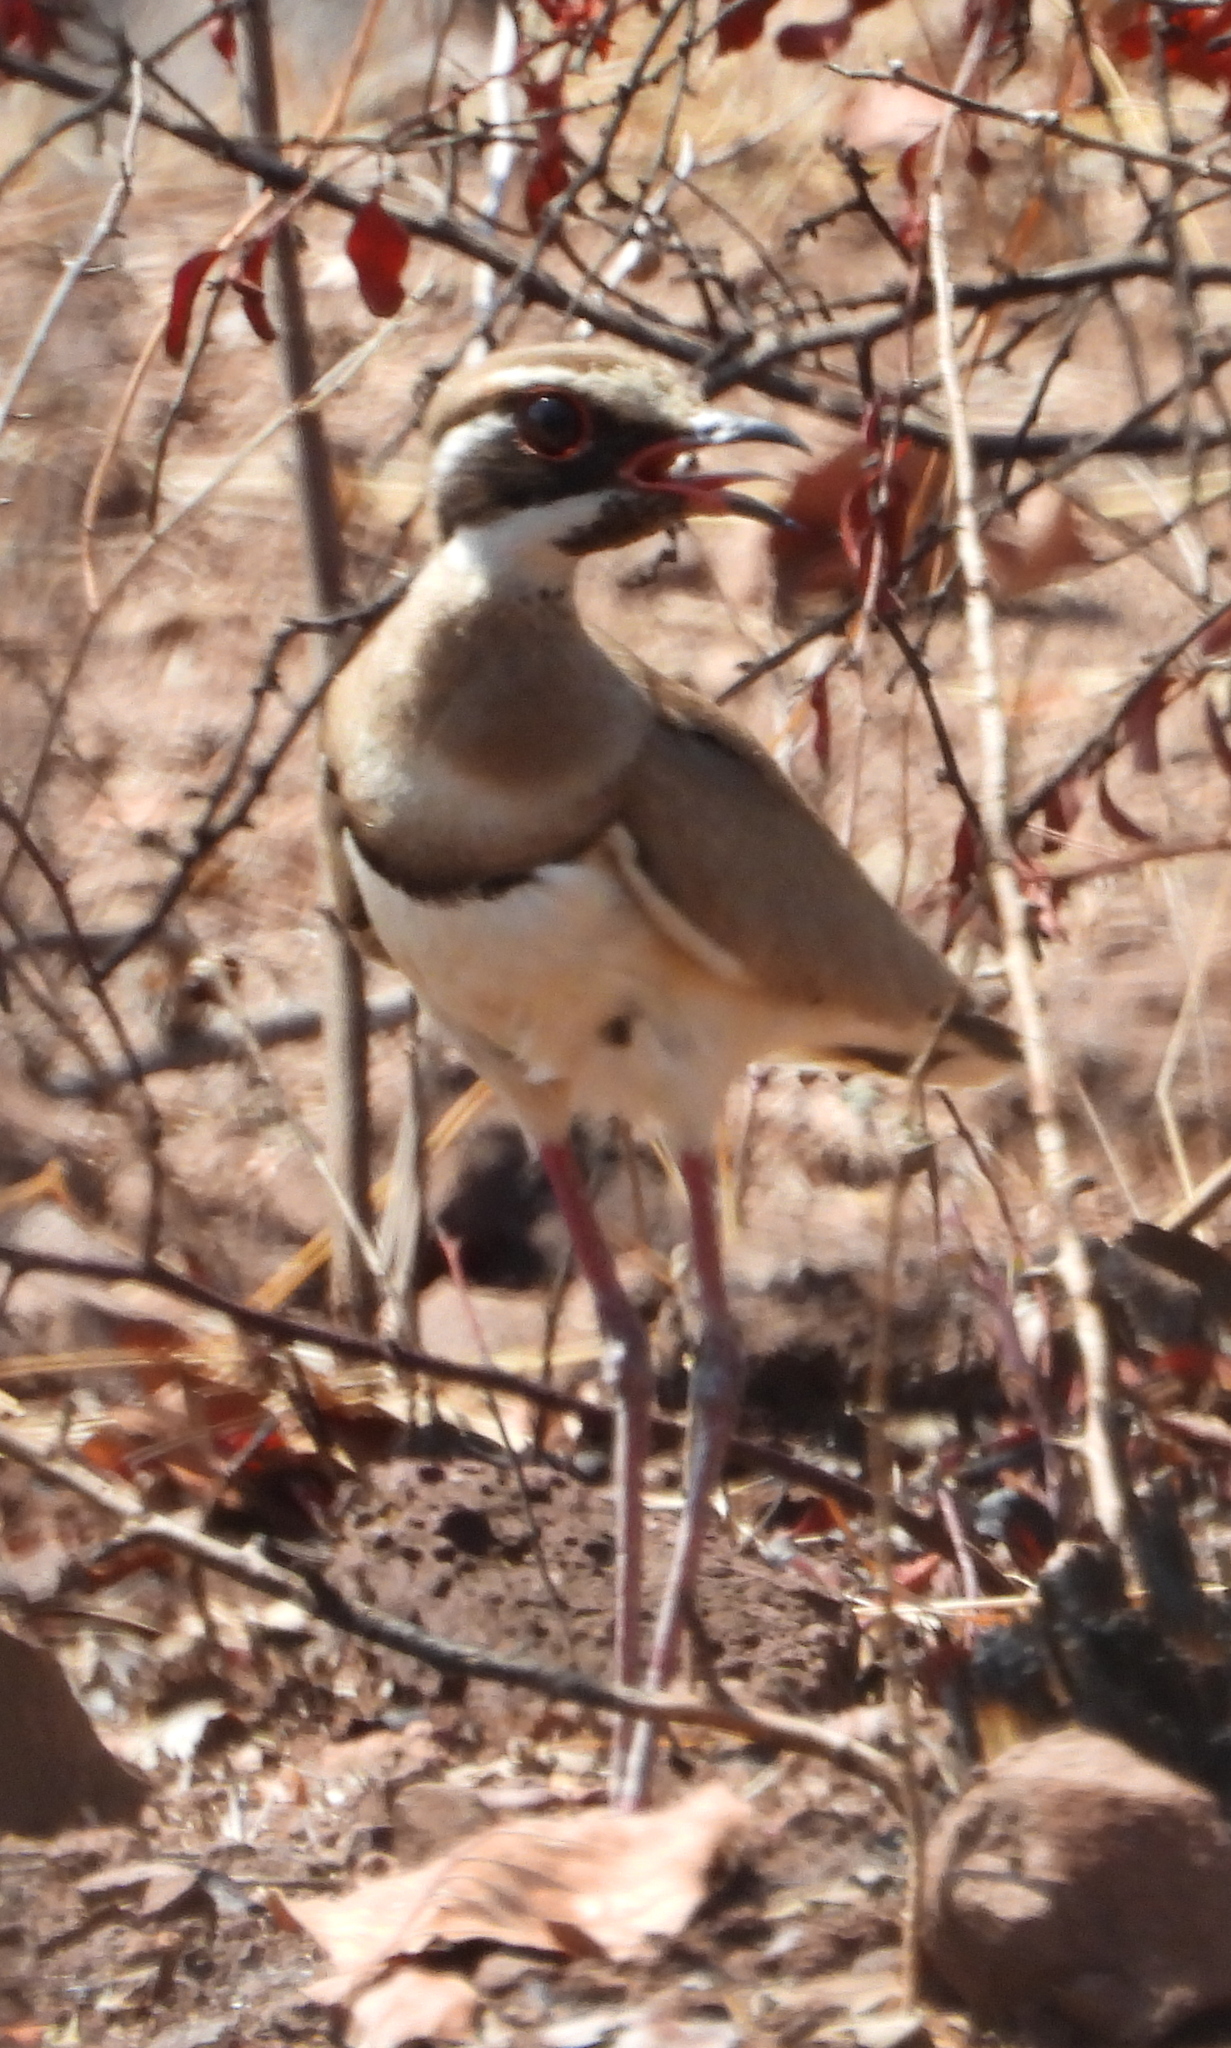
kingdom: Animalia
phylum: Chordata
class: Aves
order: Charadriiformes
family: Glareolidae
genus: Rhinoptilus
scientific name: Rhinoptilus chalcopterus
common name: Bronze-winged courser
